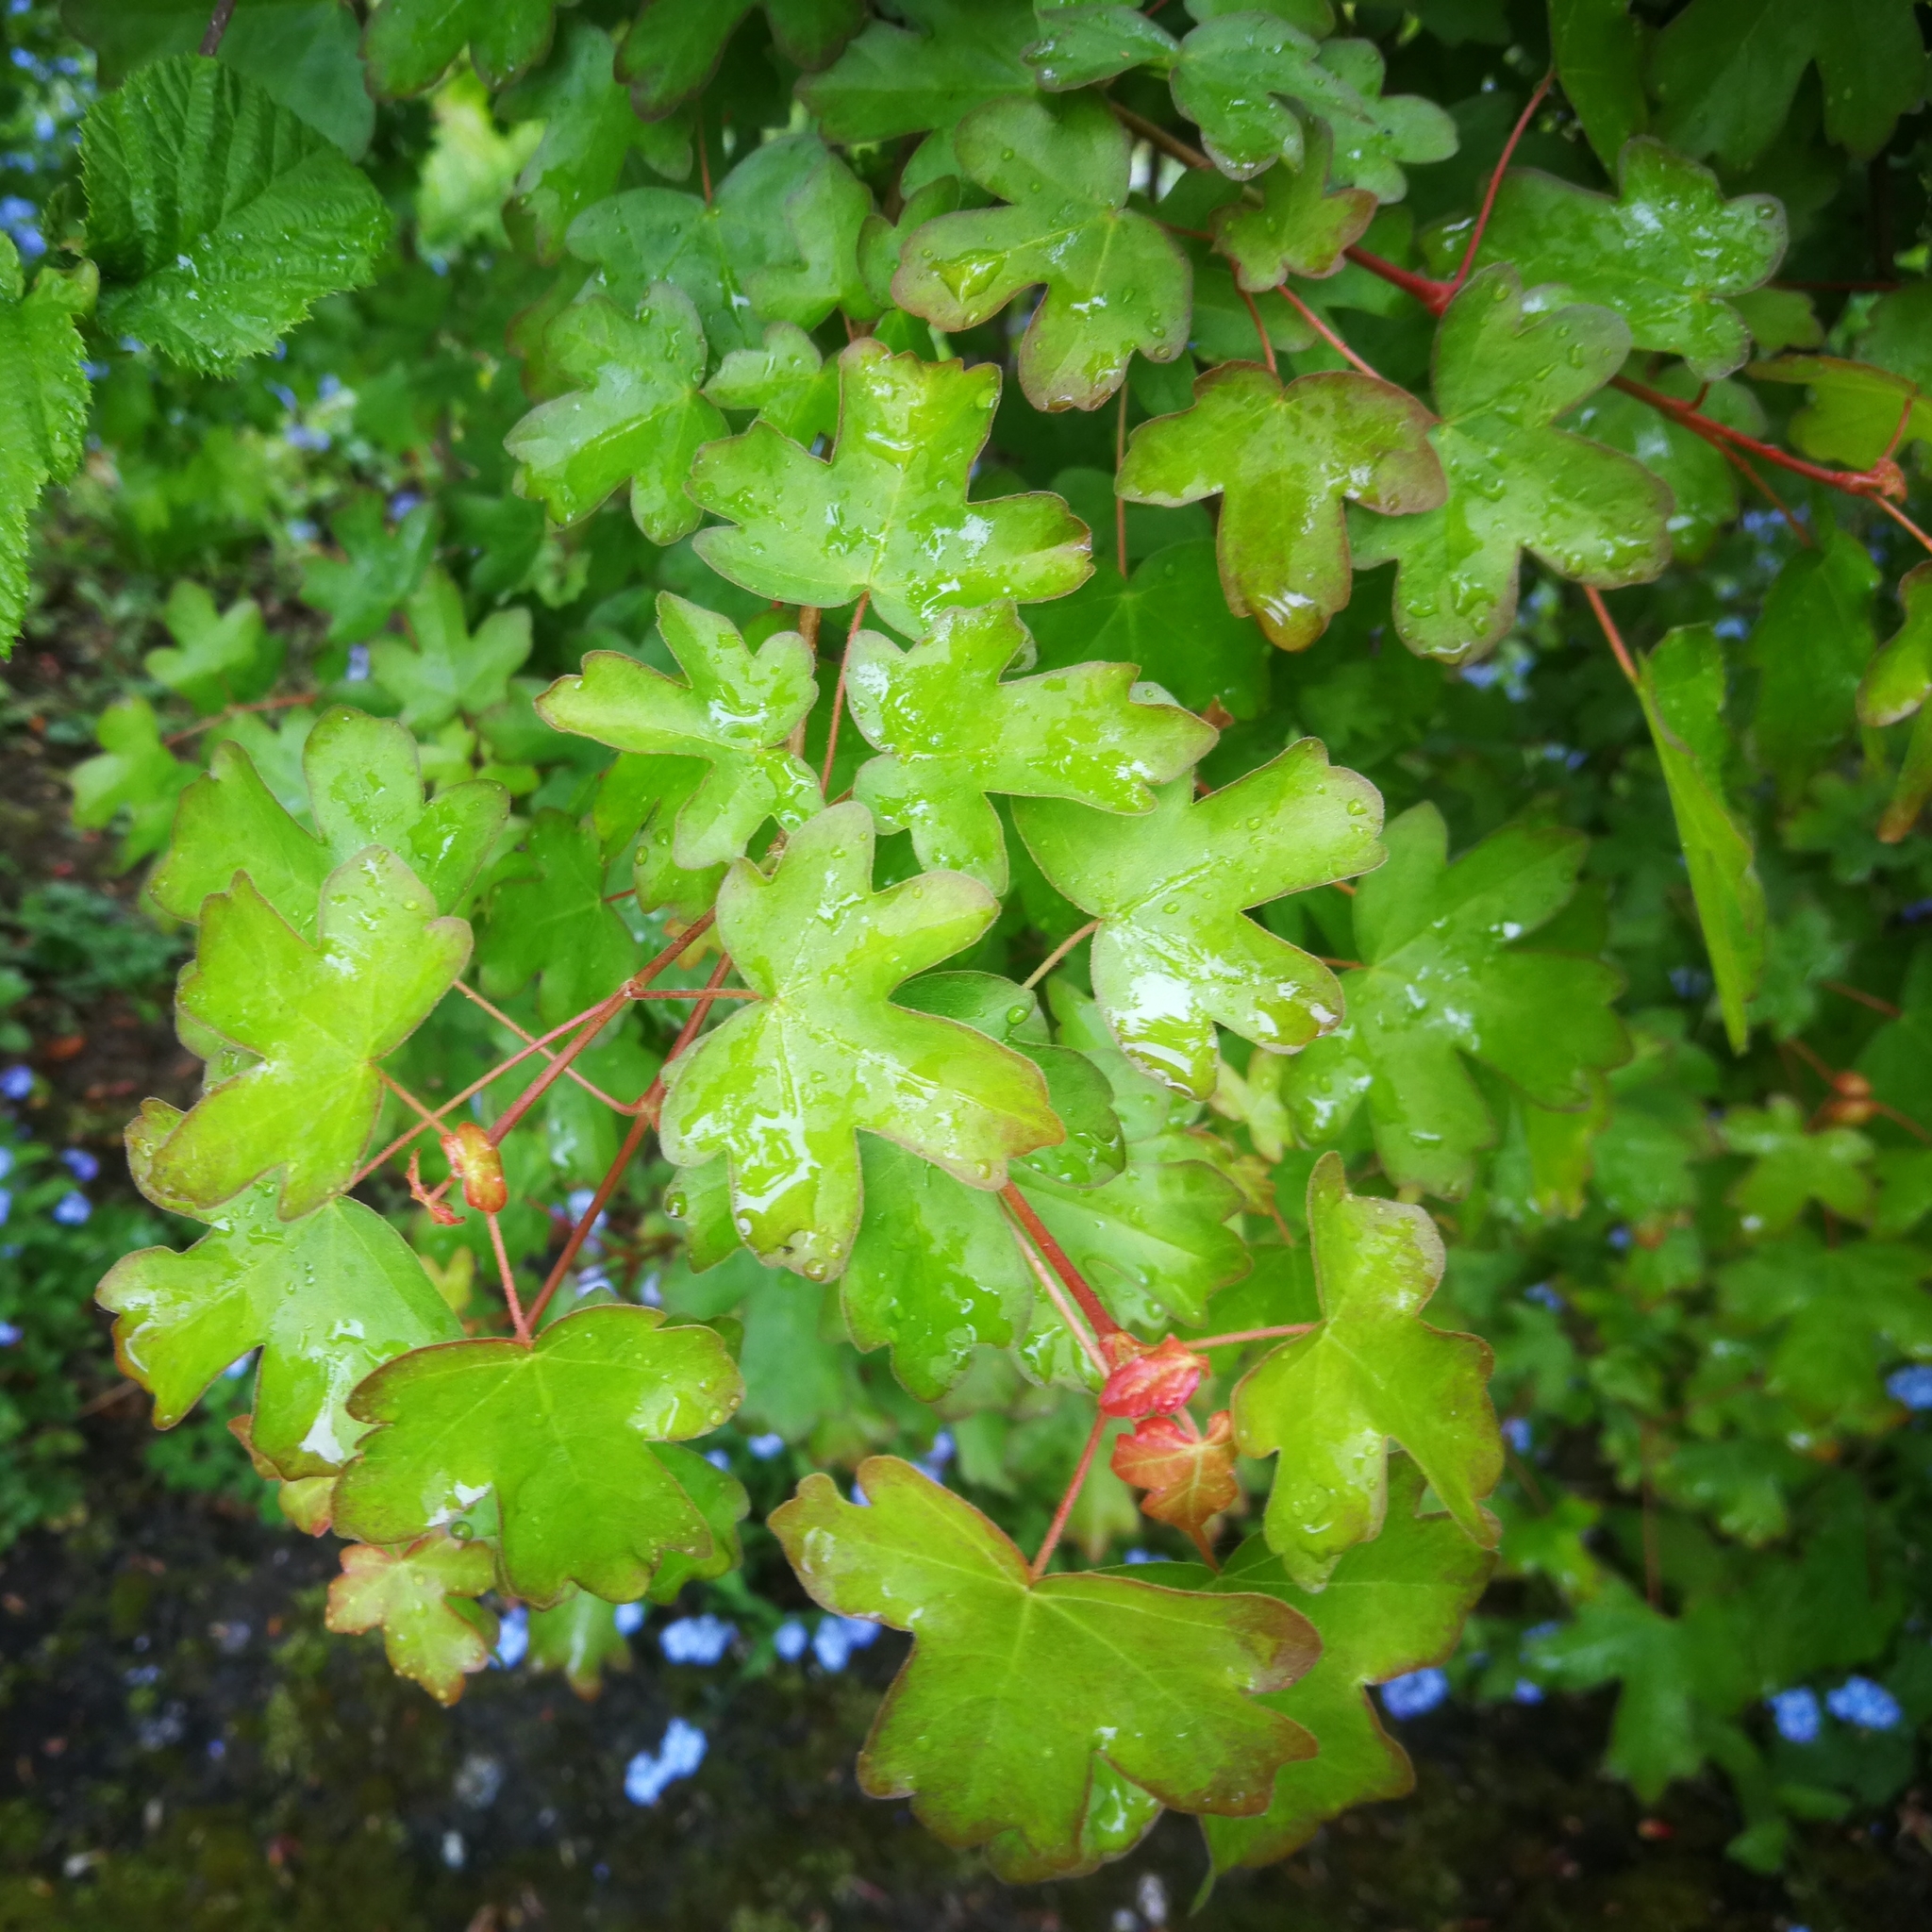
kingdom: Plantae
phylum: Tracheophyta
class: Magnoliopsida
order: Sapindales
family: Sapindaceae
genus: Acer
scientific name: Acer campestre
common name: Field maple
